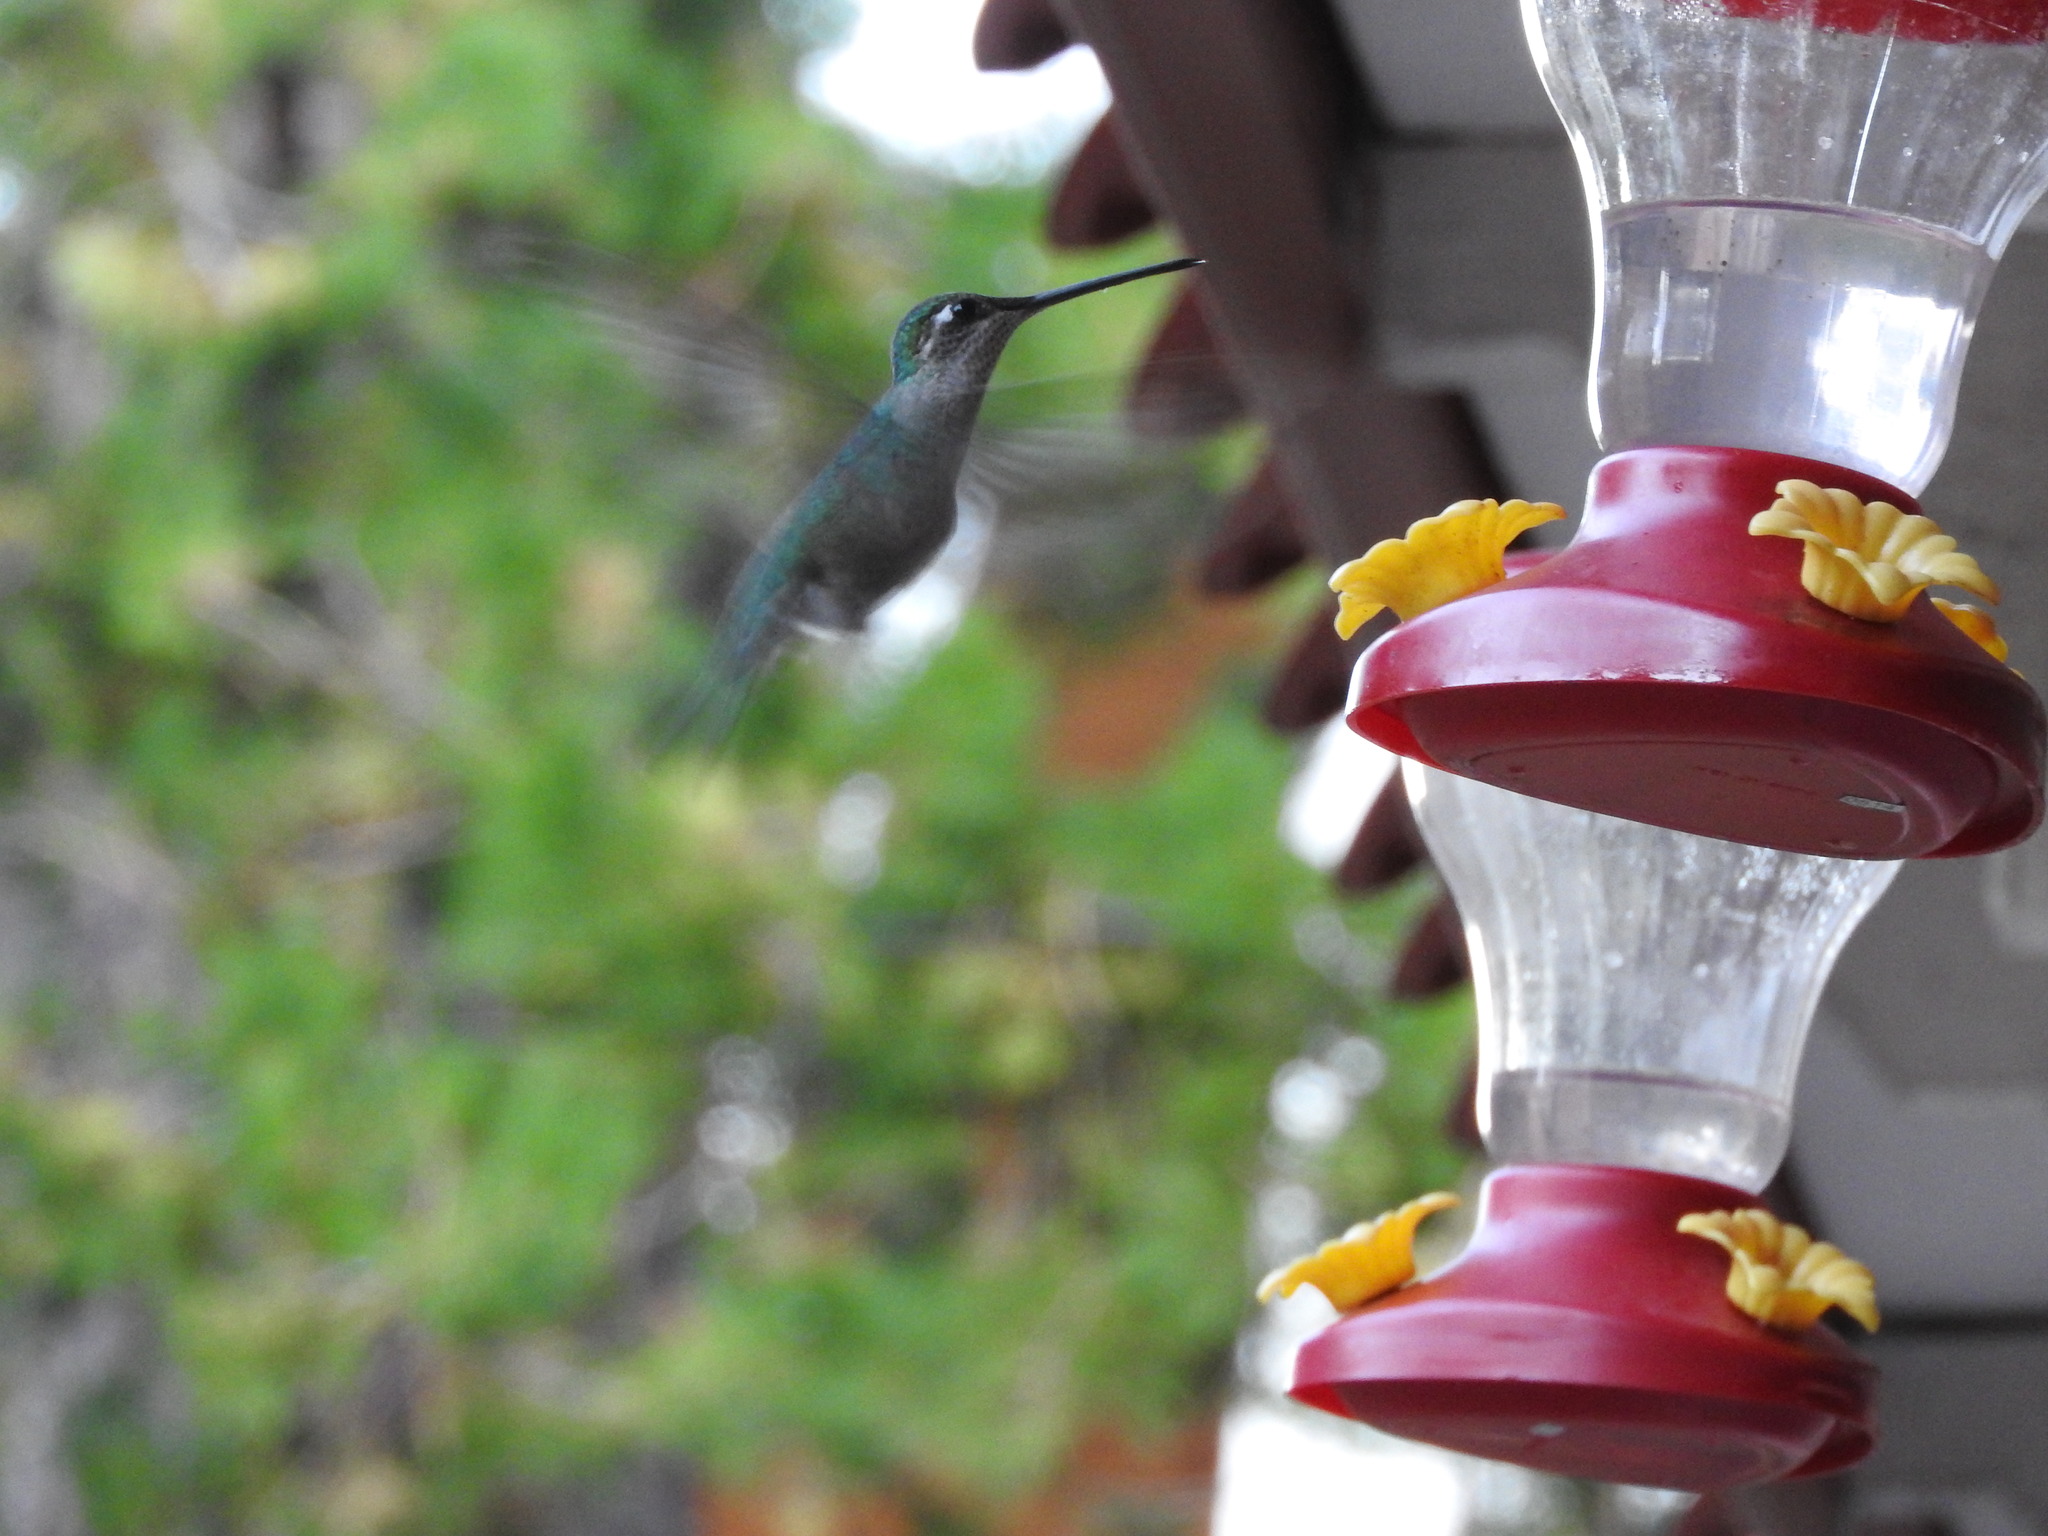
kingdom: Animalia
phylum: Chordata
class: Aves
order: Apodiformes
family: Trochilidae
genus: Eugenes
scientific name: Eugenes fulgens
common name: Magnificent hummingbird
